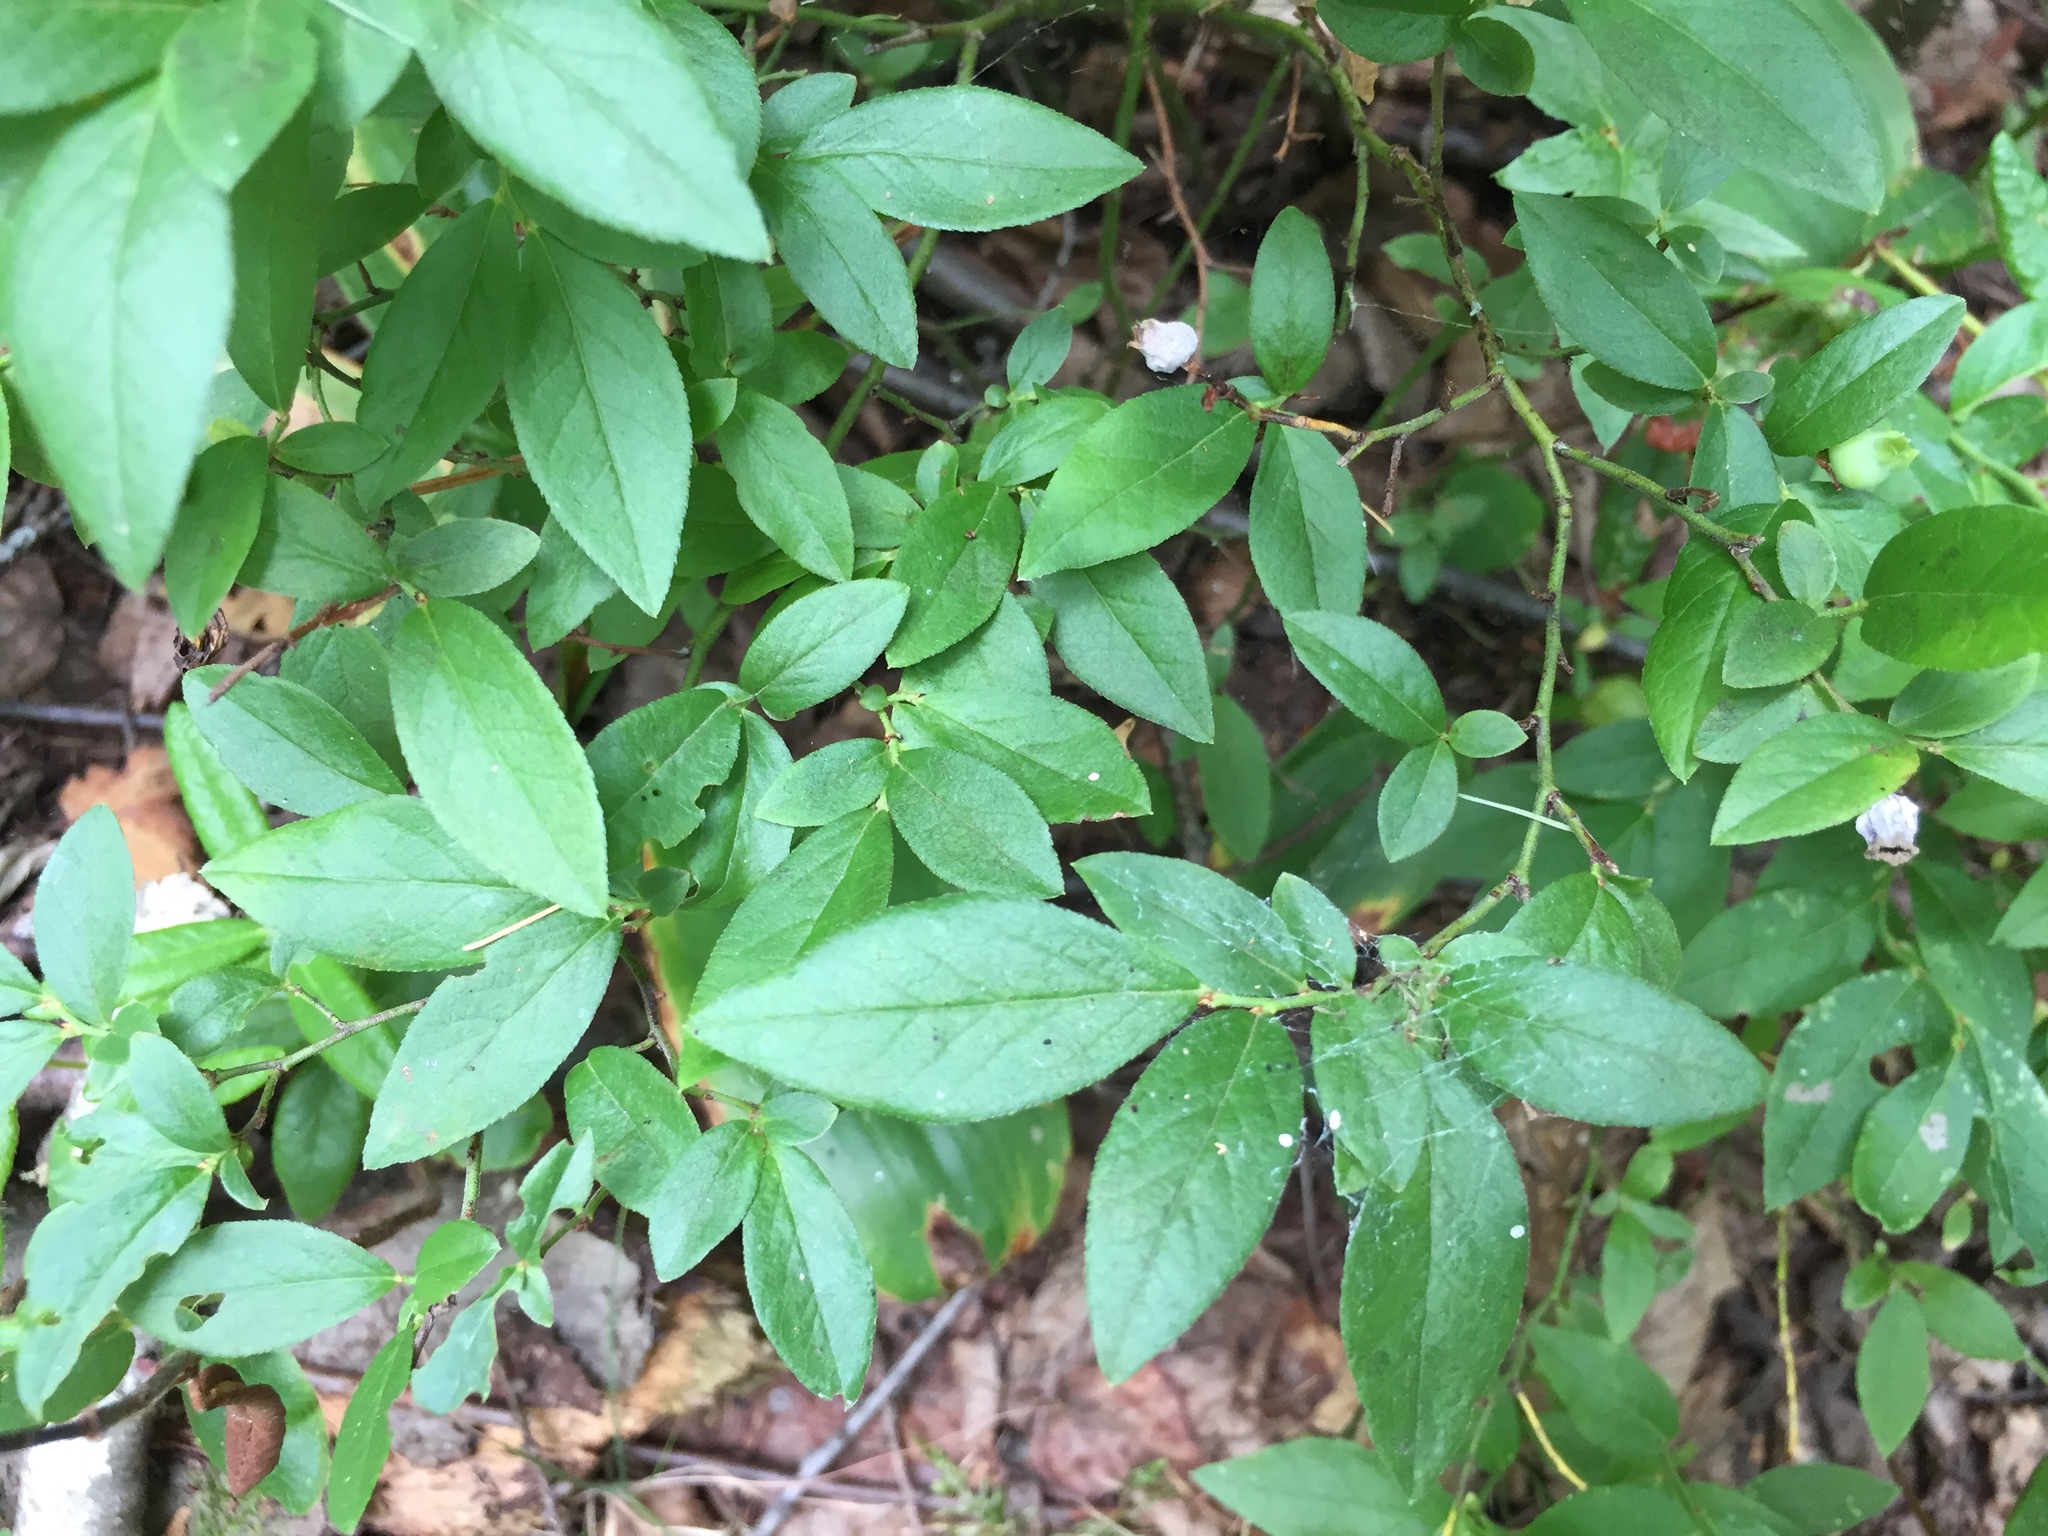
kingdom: Plantae
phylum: Tracheophyta
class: Magnoliopsida
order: Ericales
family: Ericaceae
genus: Vaccinium
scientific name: Vaccinium angustifolium
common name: Early lowbush blueberry
